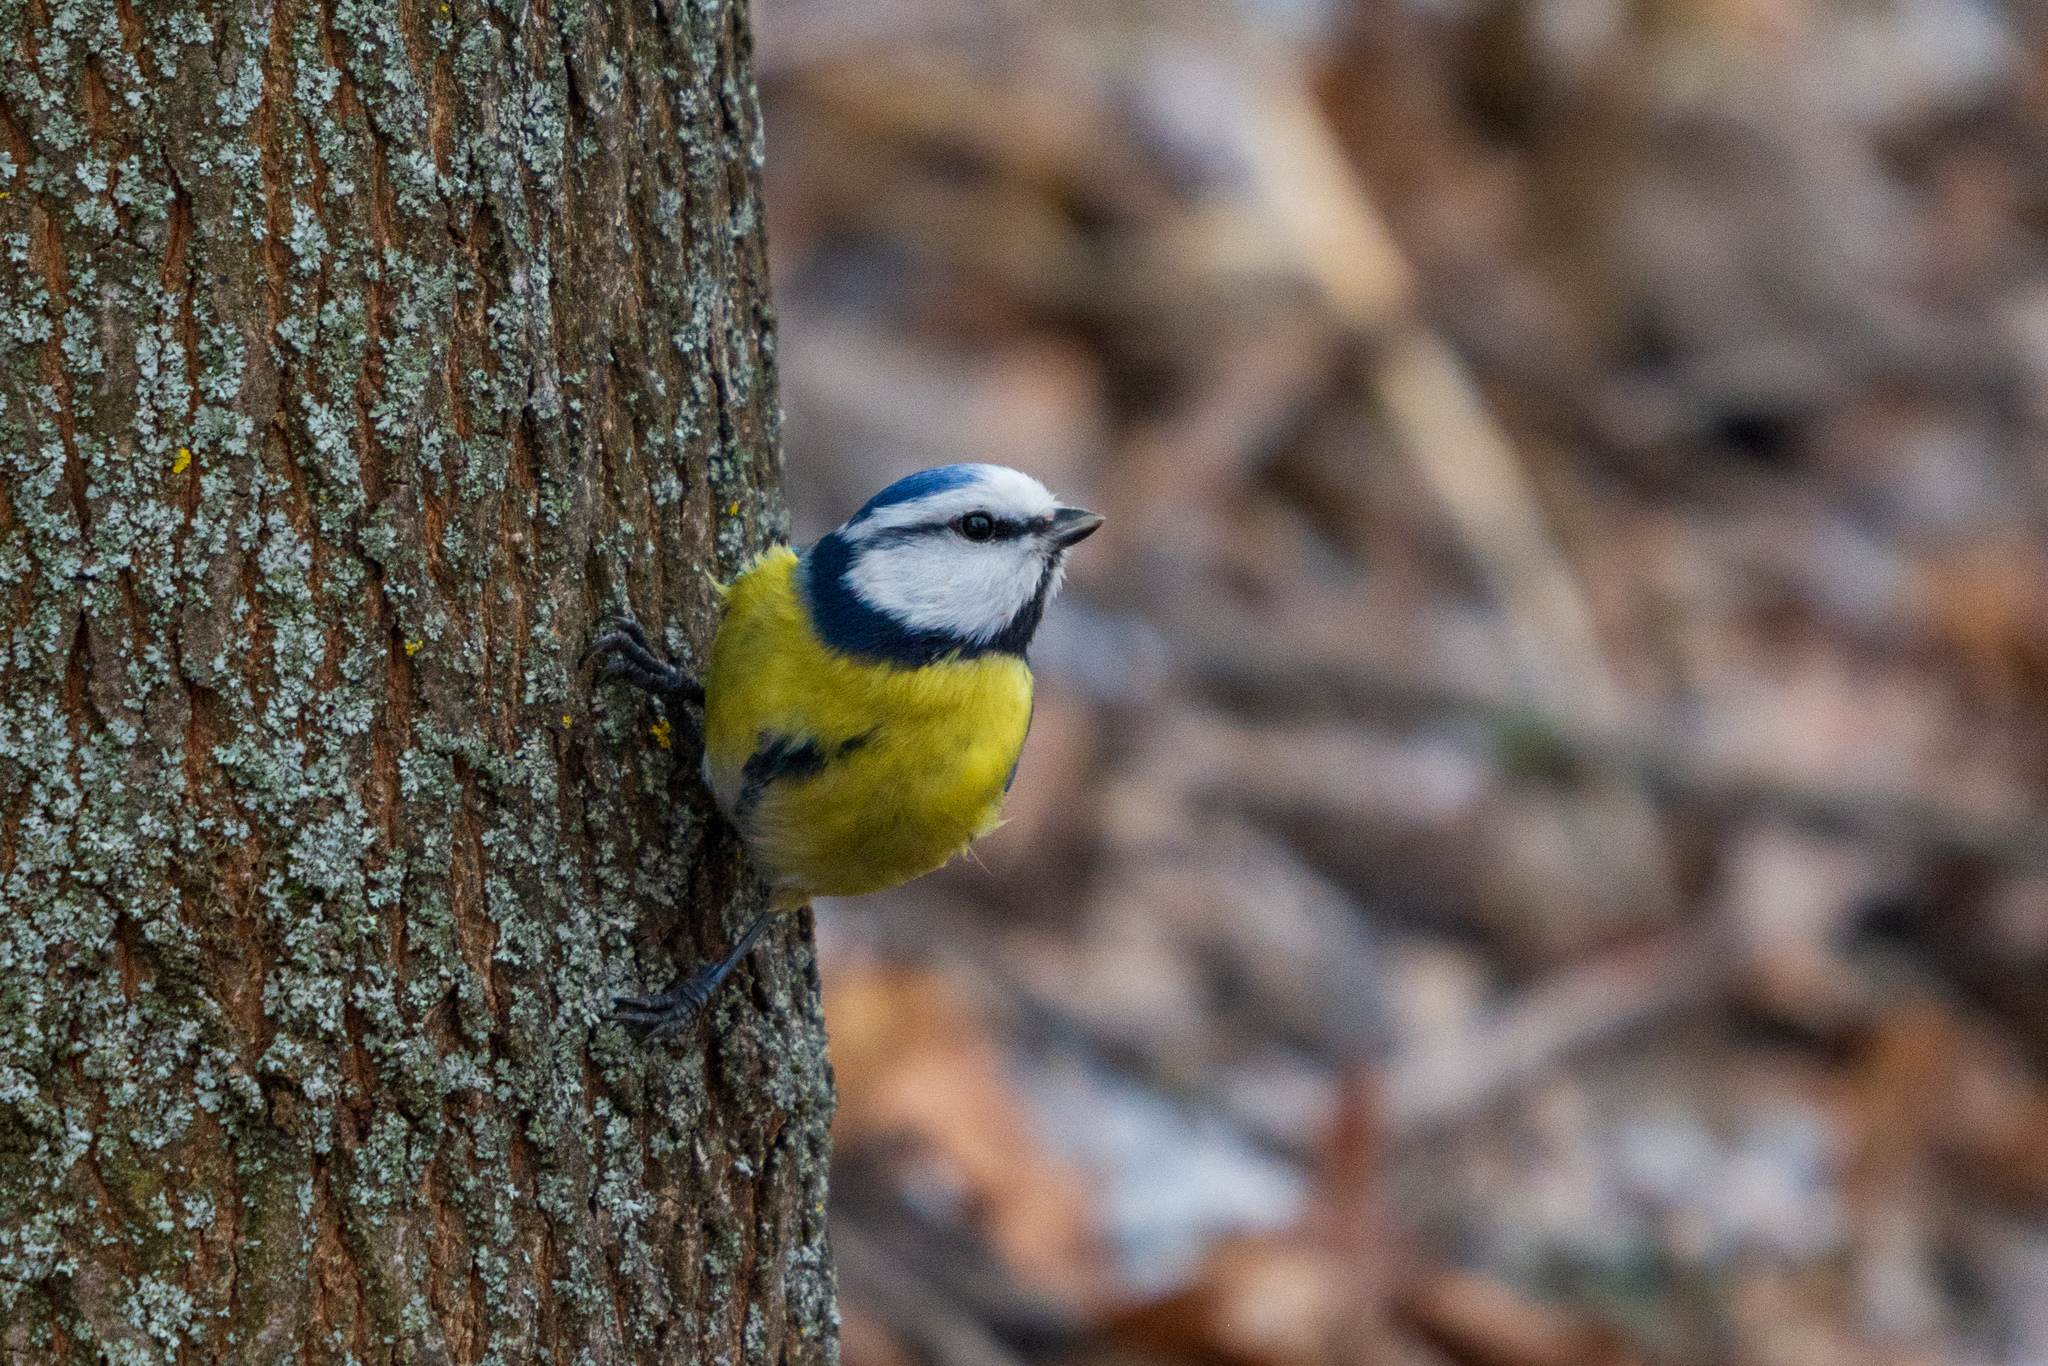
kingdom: Animalia
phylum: Chordata
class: Aves
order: Passeriformes
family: Paridae
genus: Cyanistes
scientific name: Cyanistes caeruleus
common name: Eurasian blue tit
